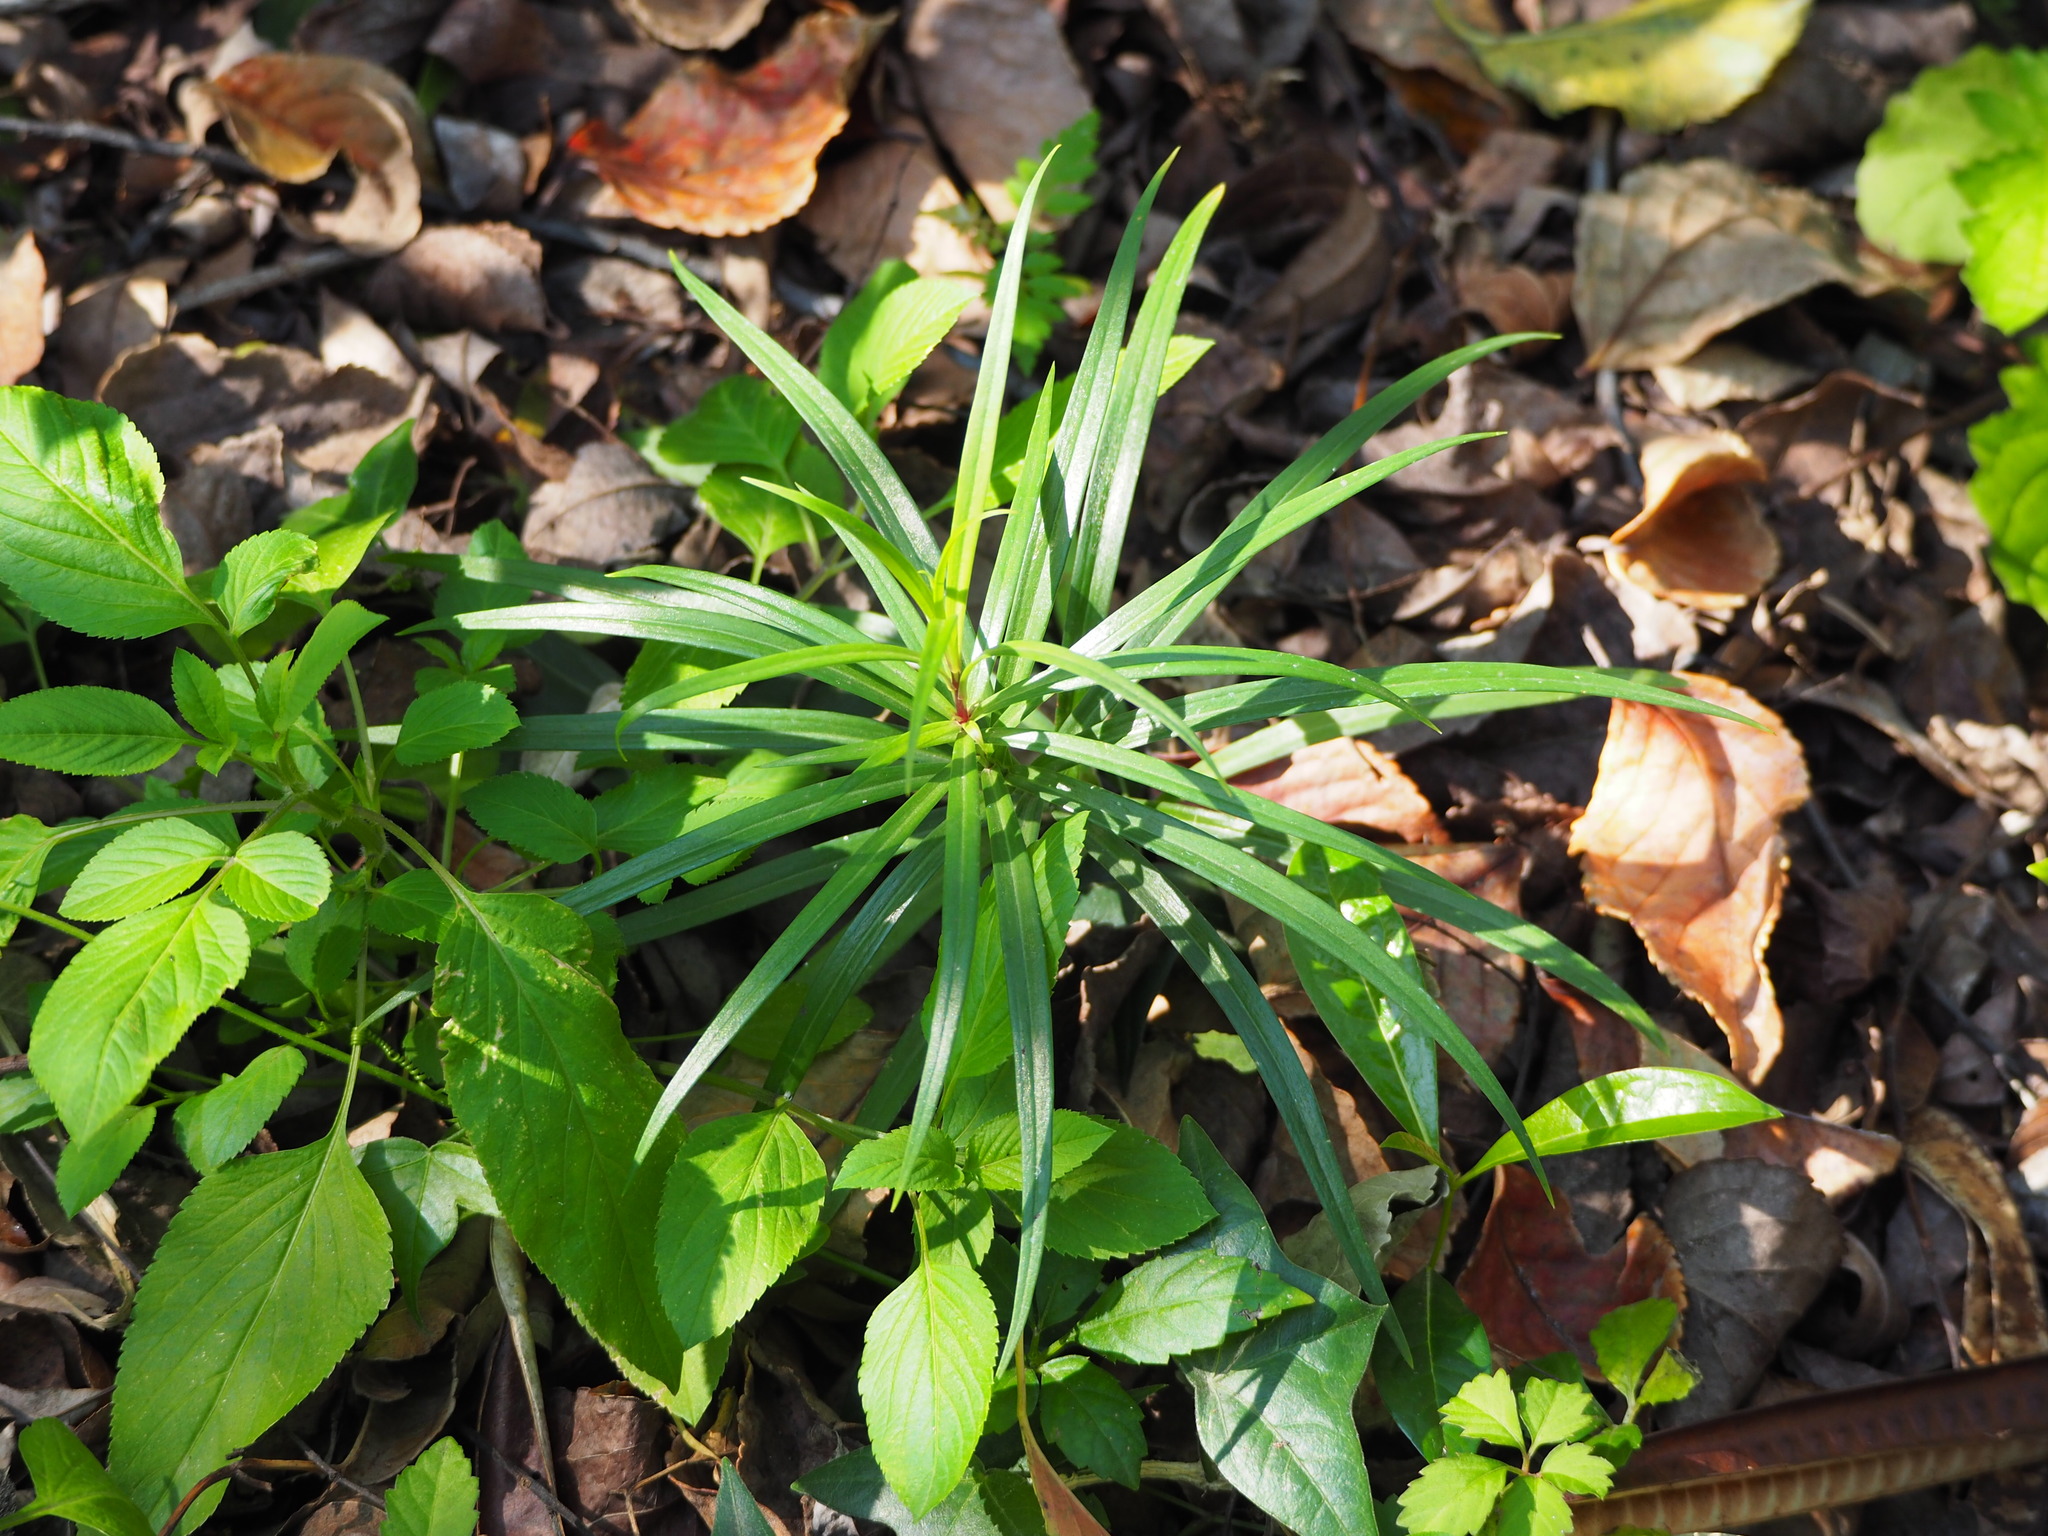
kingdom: Plantae
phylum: Tracheophyta
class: Liliopsida
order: Liliales
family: Liliaceae
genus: Lilium
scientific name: Lilium formosanum
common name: Formosa lily
